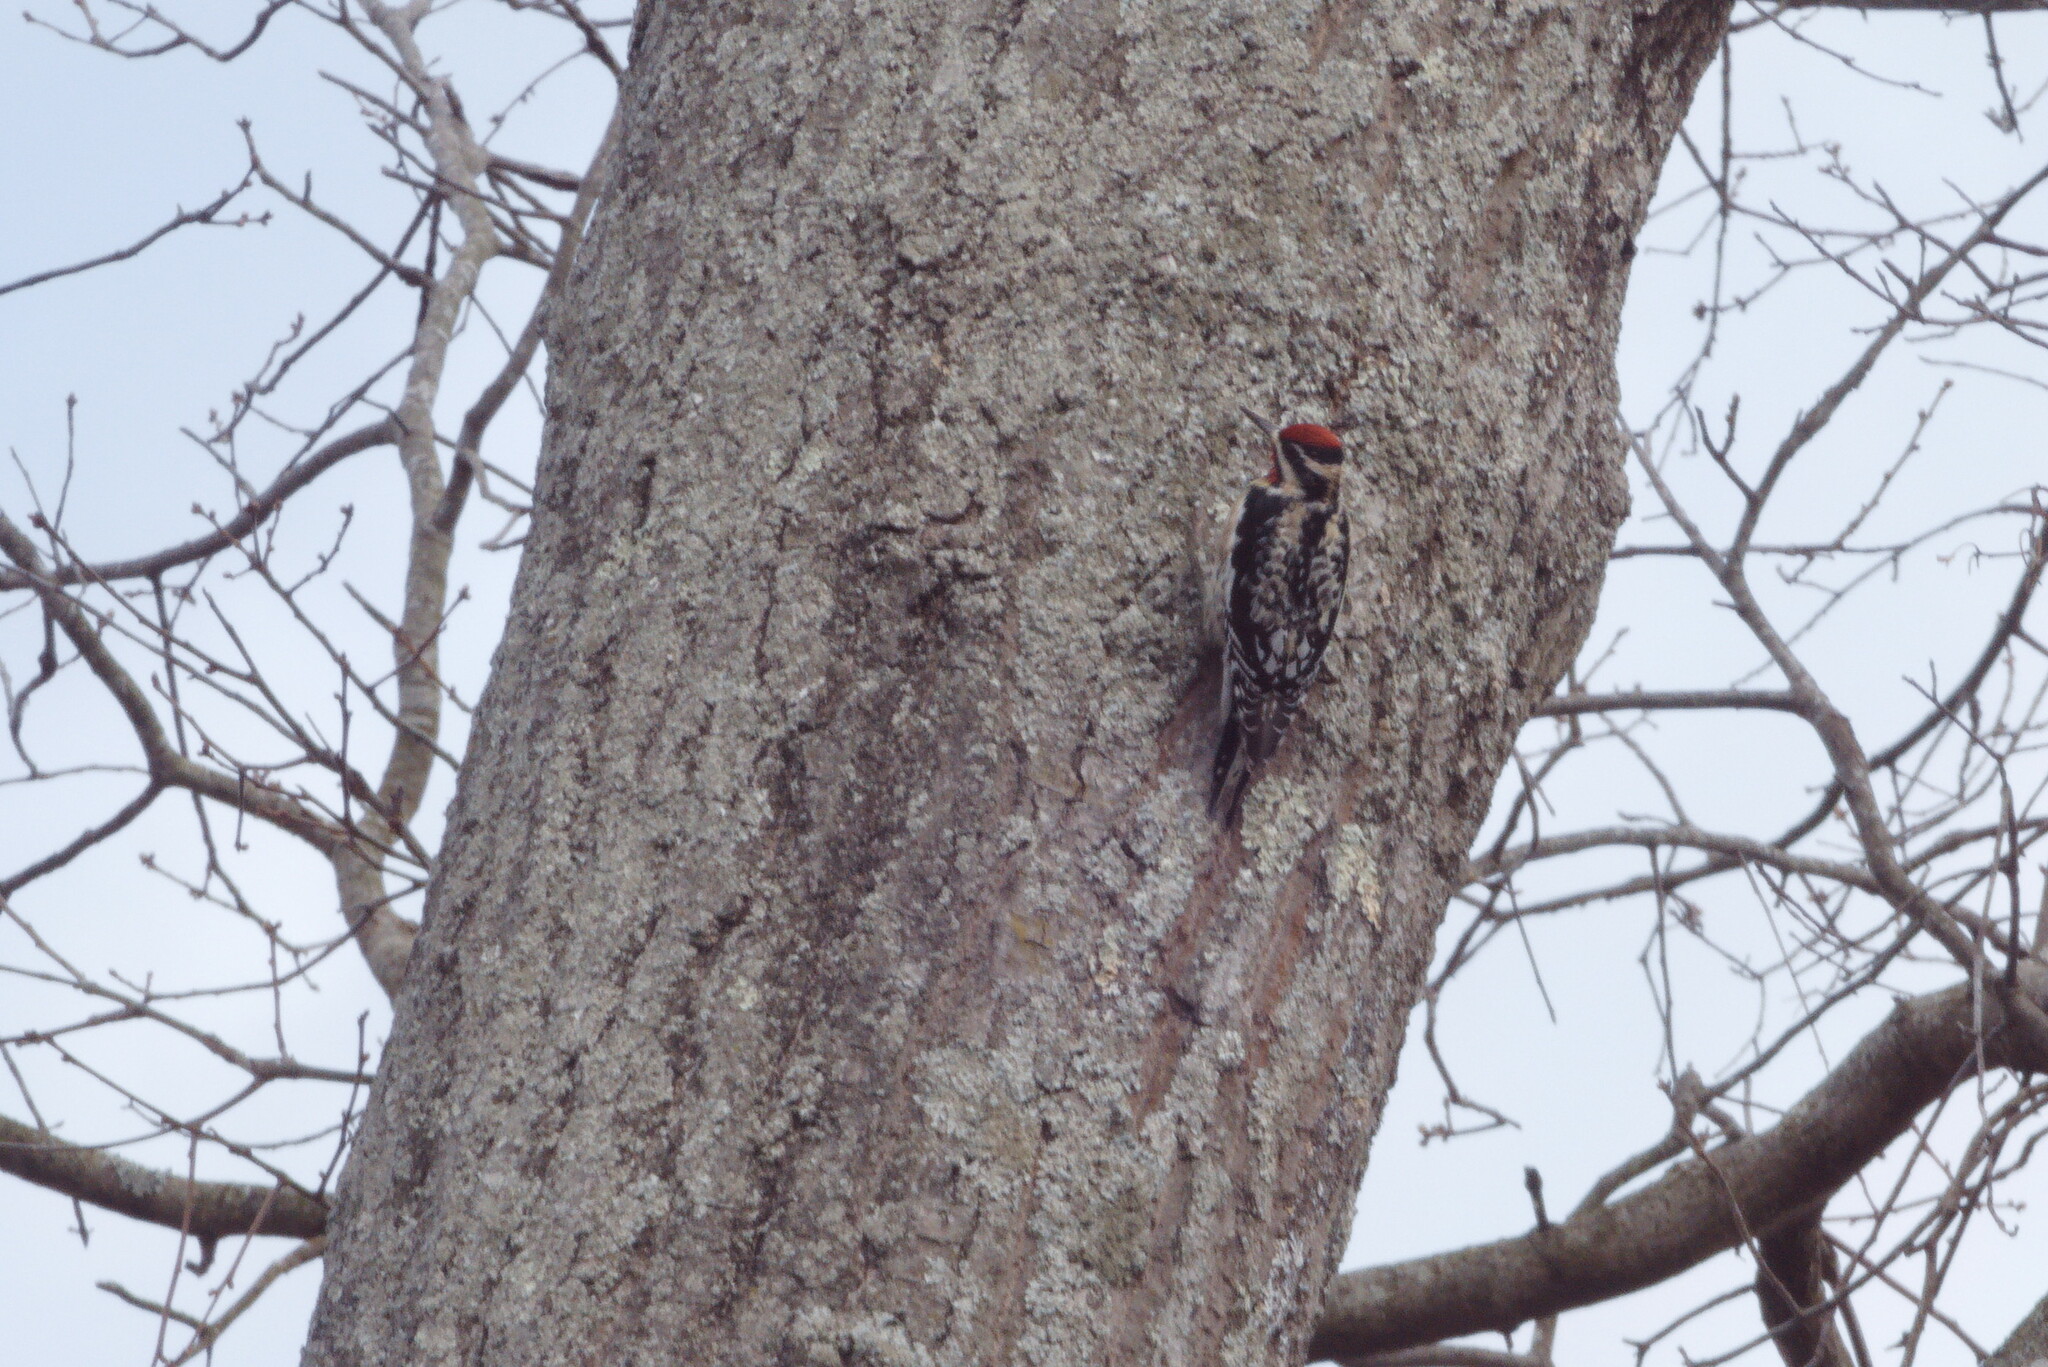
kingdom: Animalia
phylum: Chordata
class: Aves
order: Piciformes
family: Picidae
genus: Sphyrapicus
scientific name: Sphyrapicus varius
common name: Yellow-bellied sapsucker
